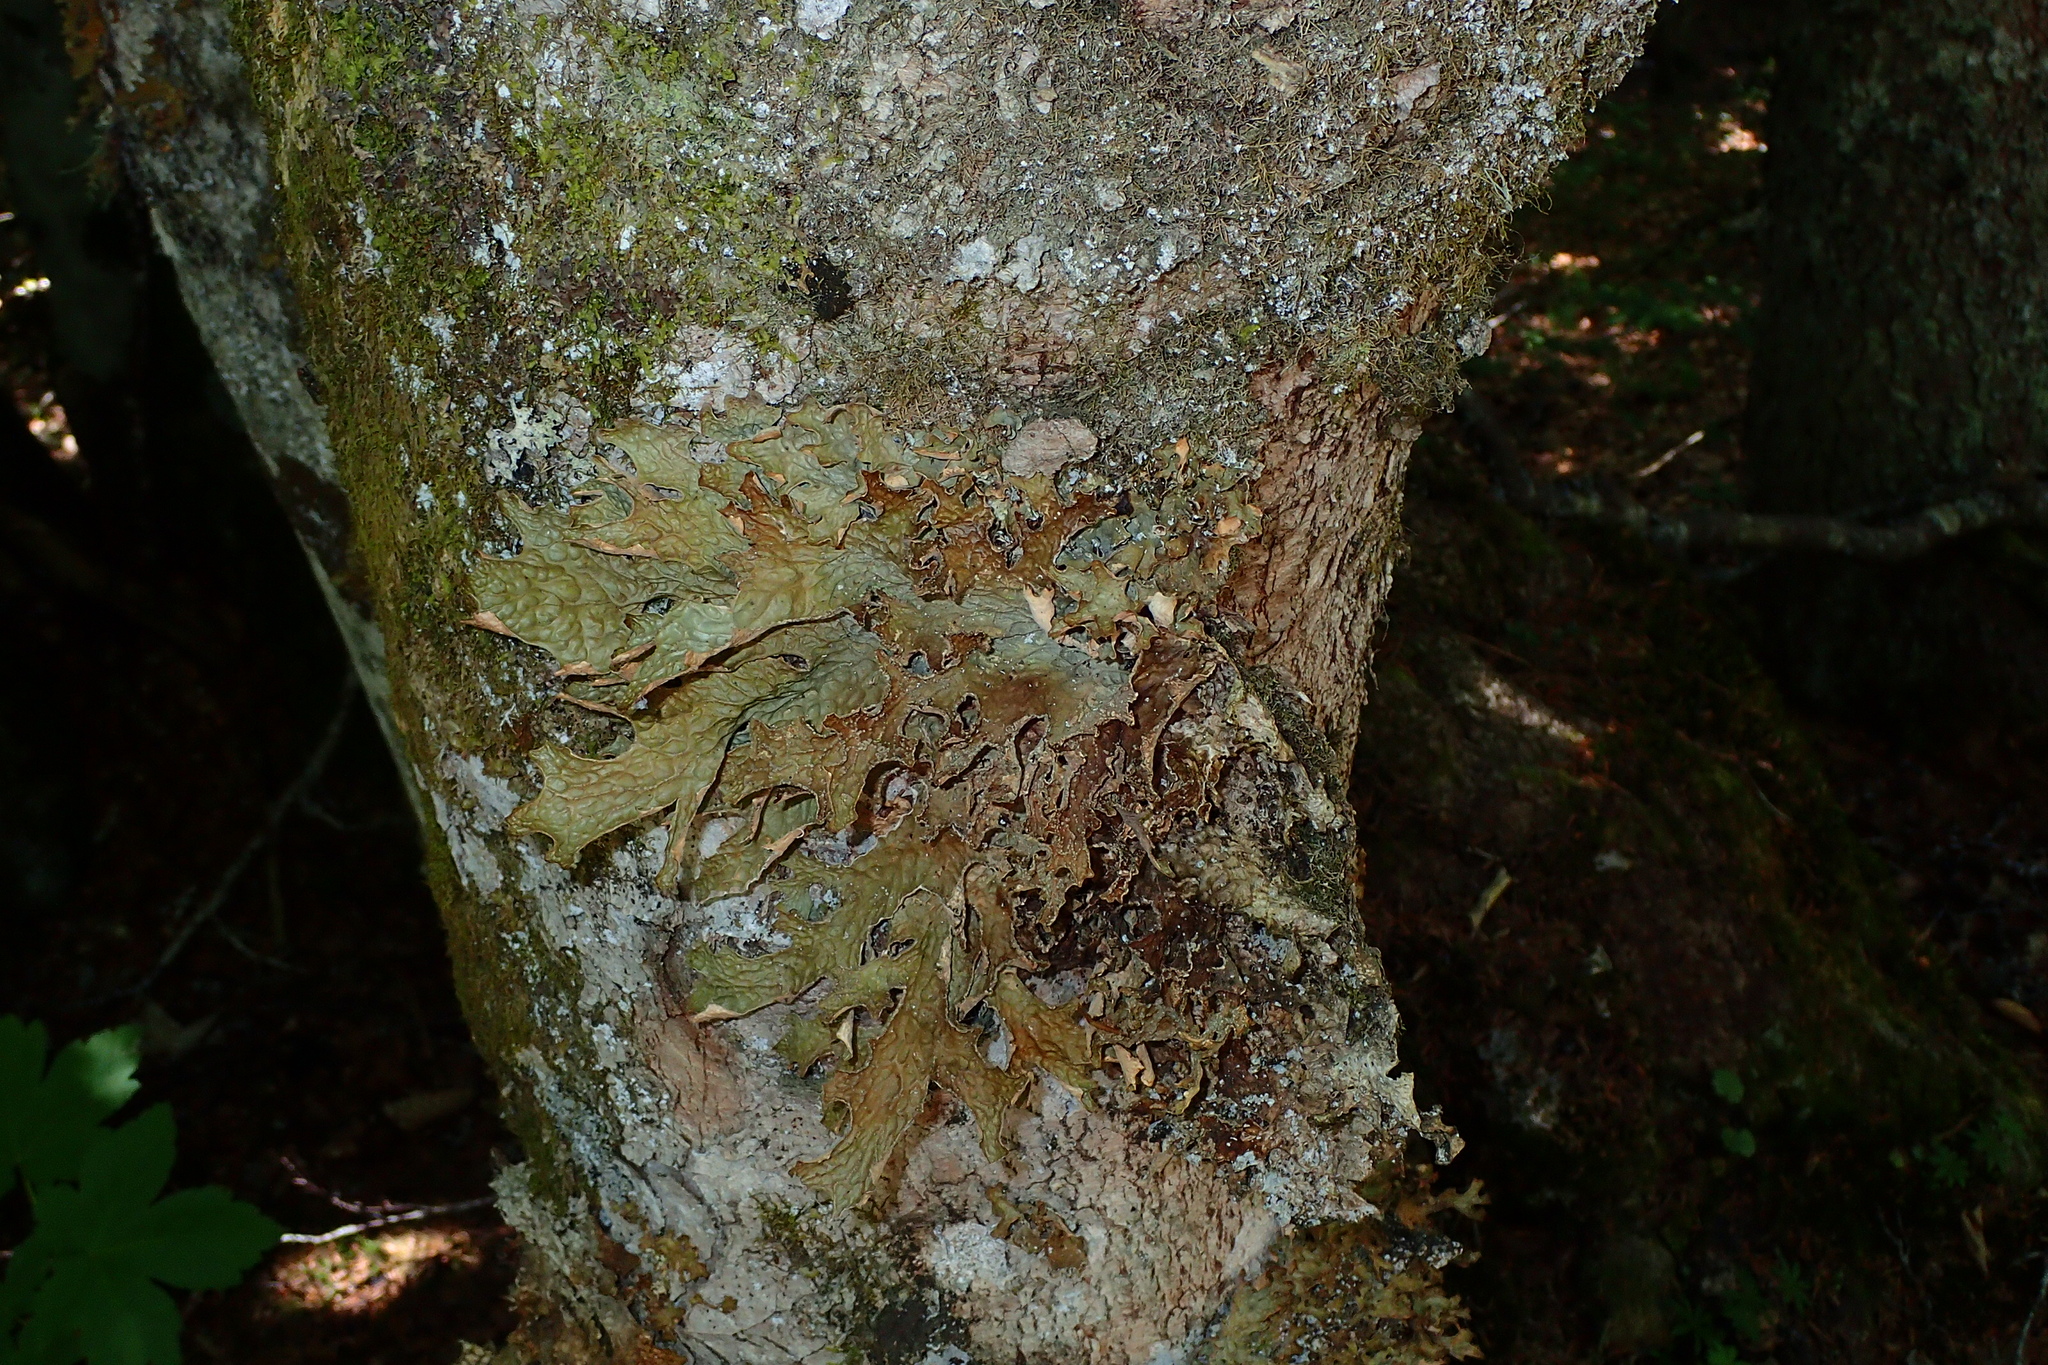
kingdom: Fungi
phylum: Ascomycota
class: Lecanoromycetes
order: Peltigerales
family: Lobariaceae
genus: Lobaria
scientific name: Lobaria pulmonaria
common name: Lungwort
